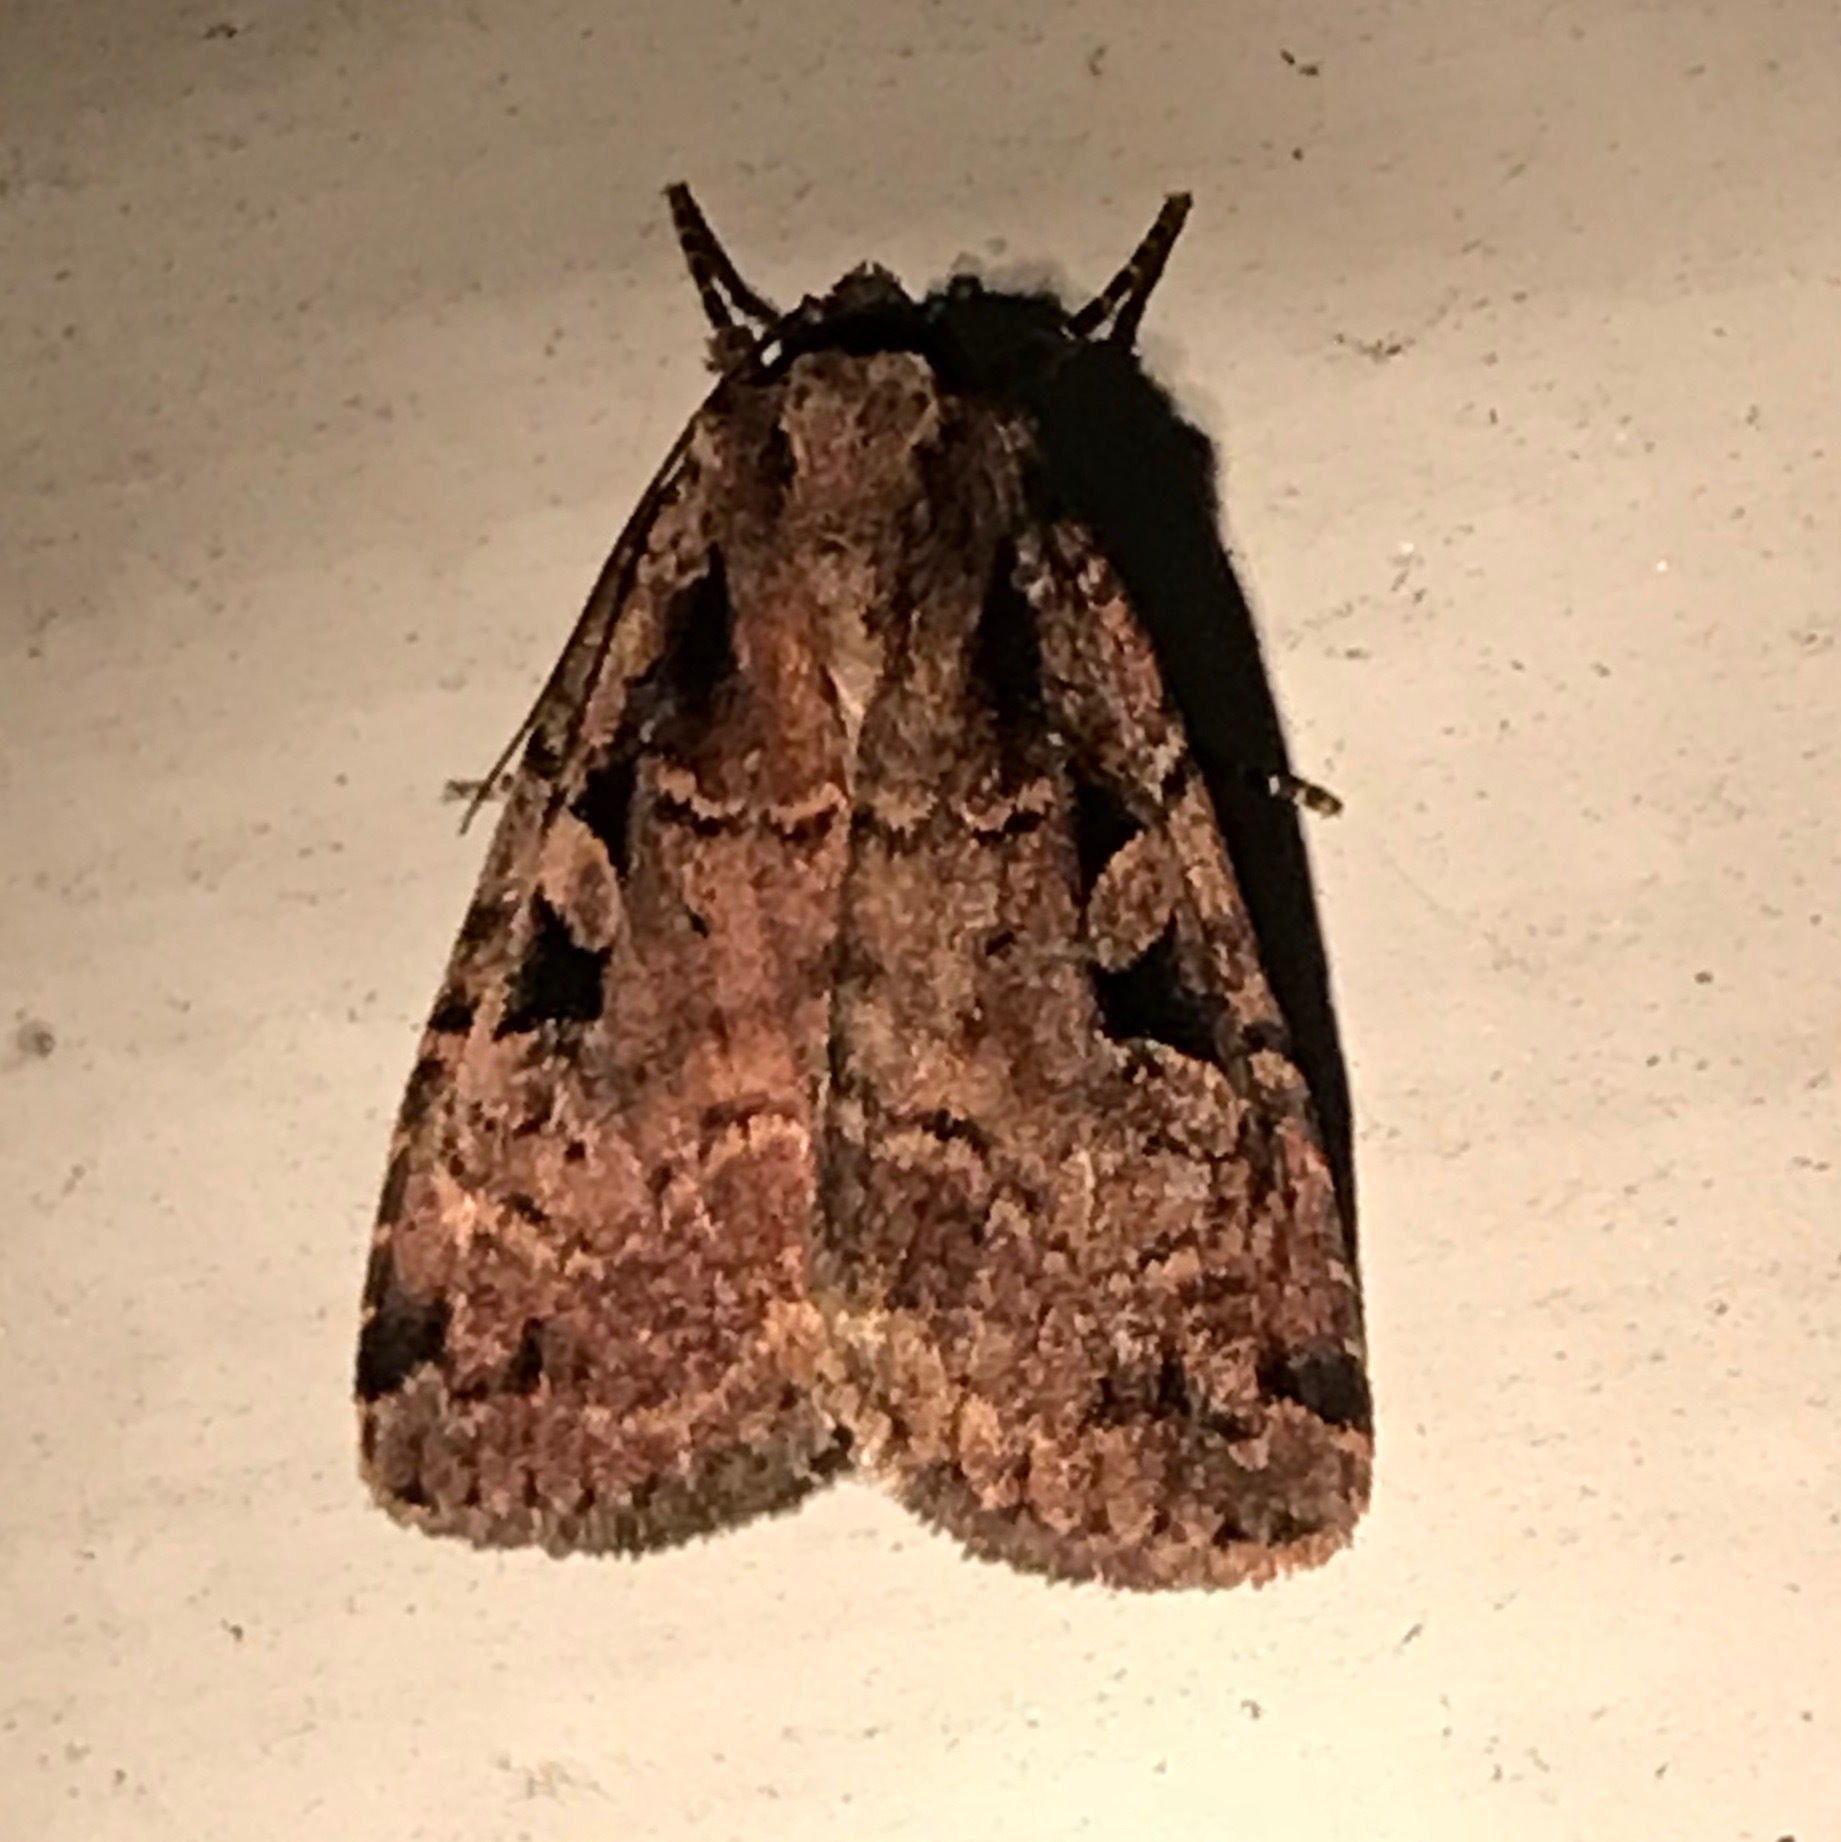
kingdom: Animalia
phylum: Arthropoda
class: Insecta
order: Lepidoptera
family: Noctuidae
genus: Eueretagrotis
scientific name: Eueretagrotis perattentus
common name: Two-spot dart moth
